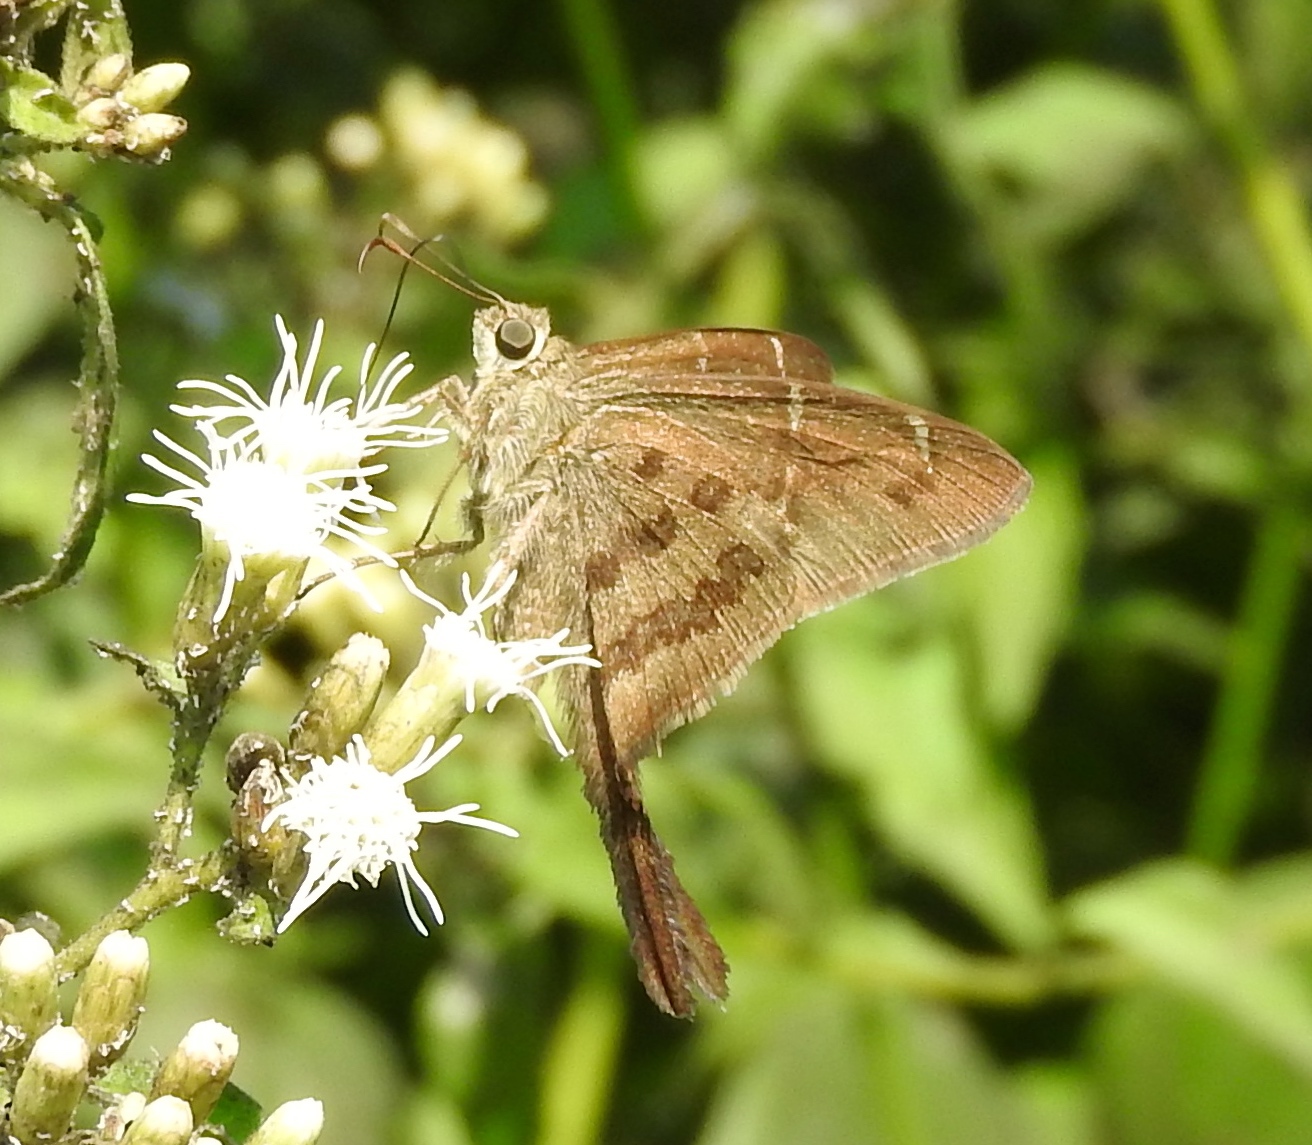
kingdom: Animalia
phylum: Arthropoda
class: Insecta
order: Lepidoptera
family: Hesperiidae
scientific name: Hesperiidae
